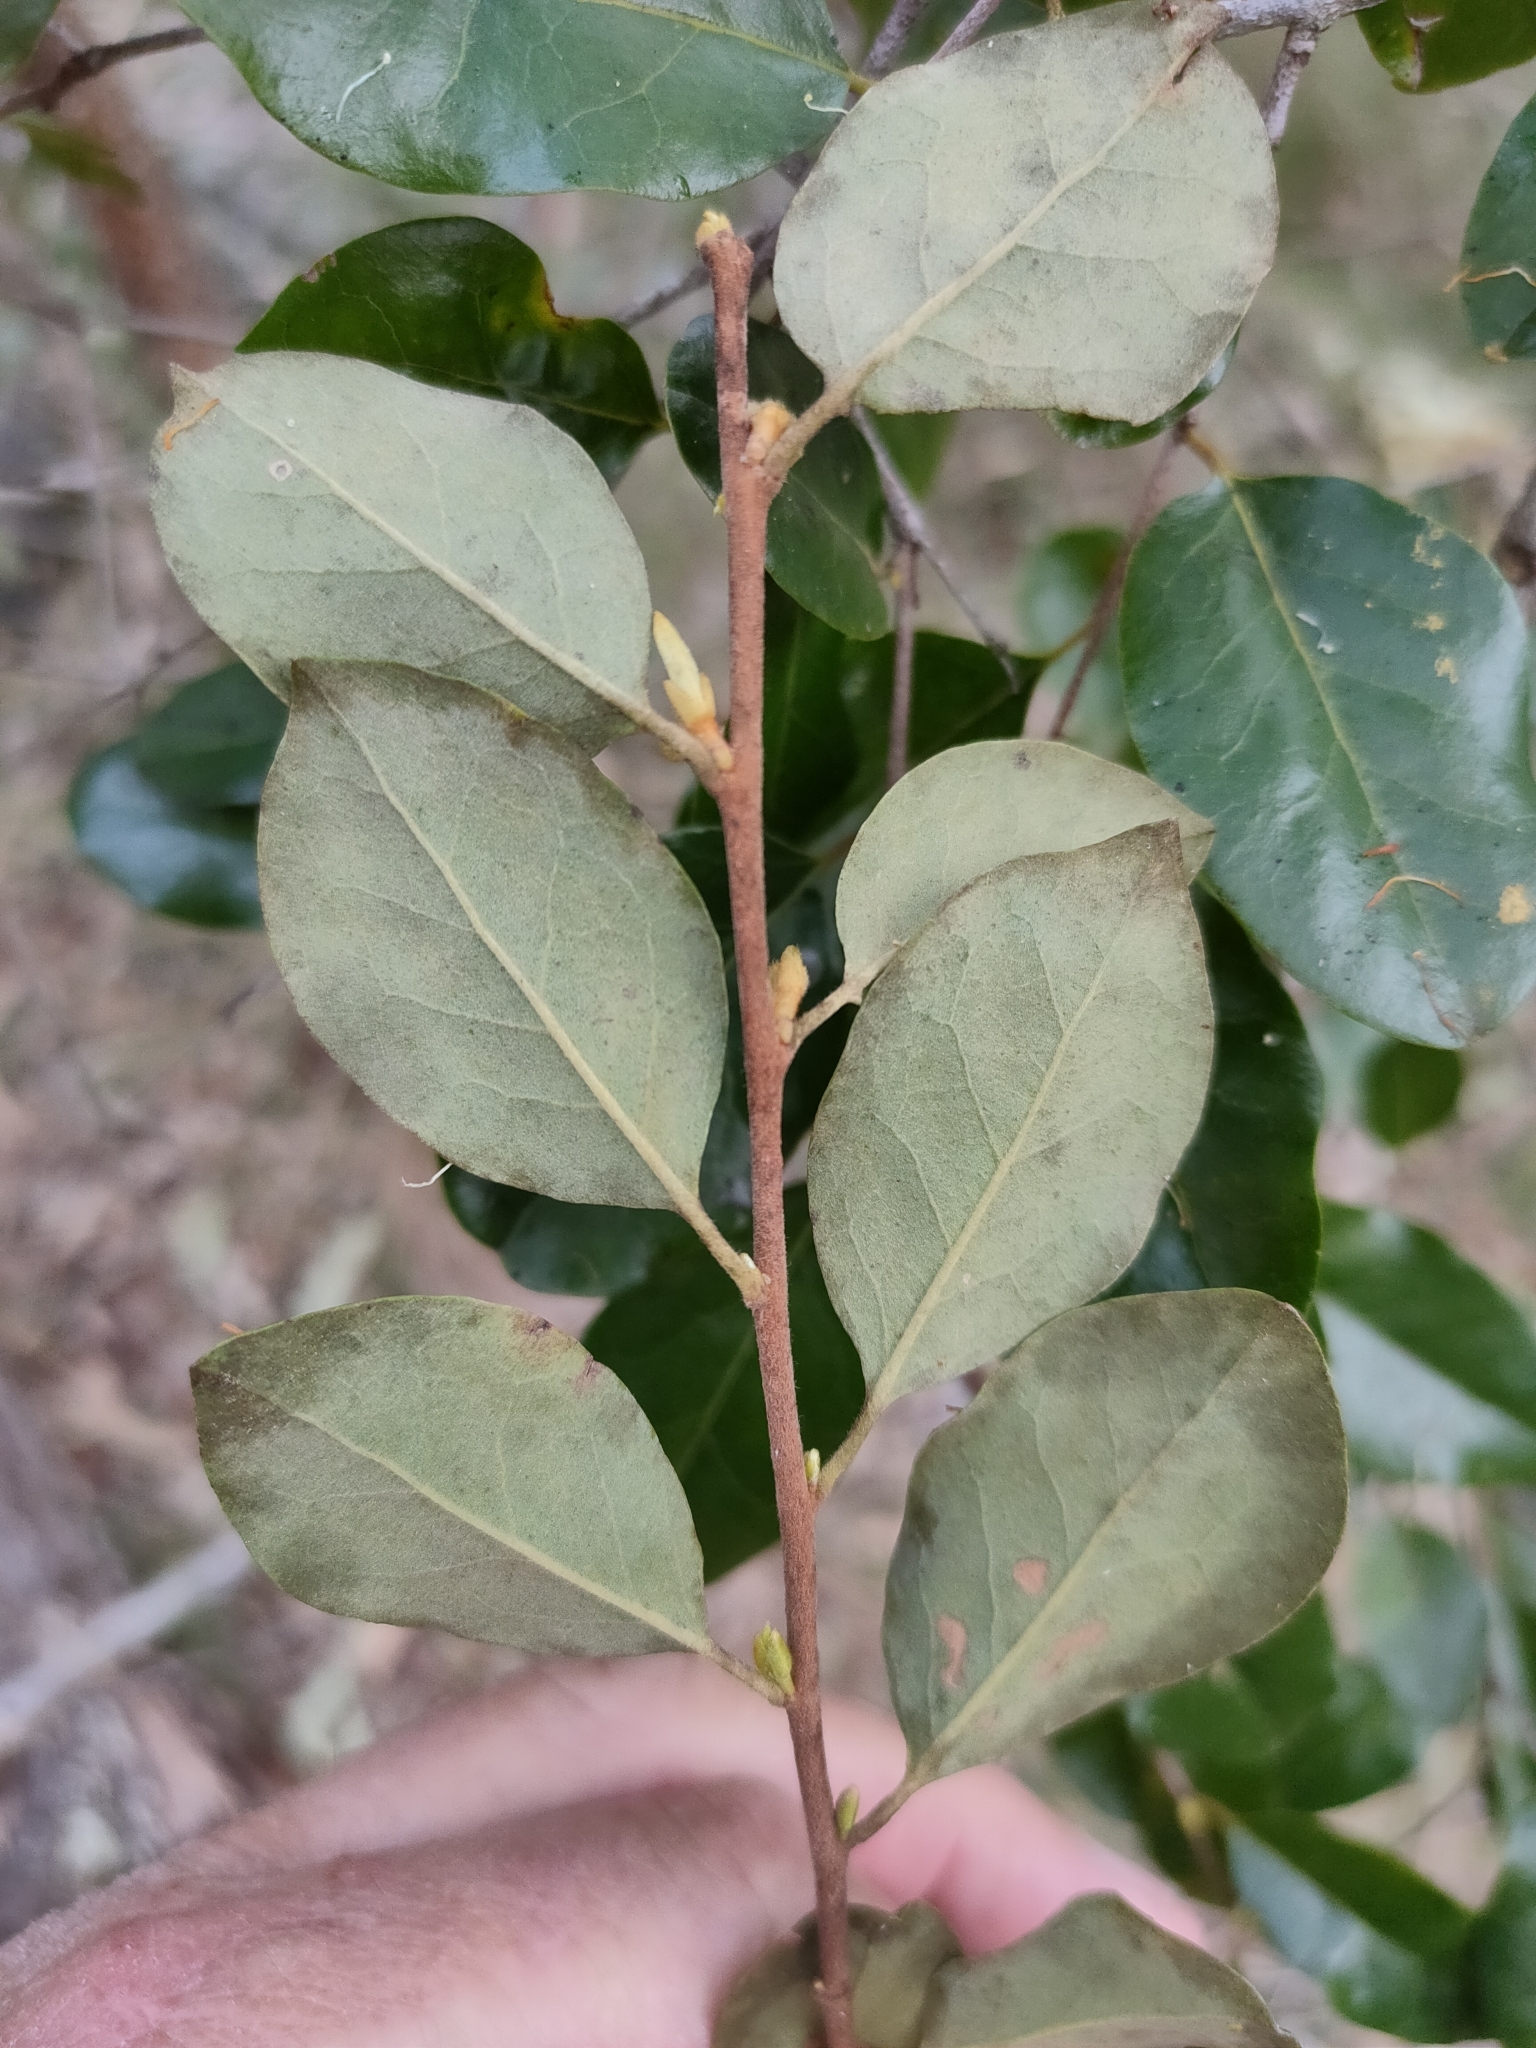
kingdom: Plantae
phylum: Tracheophyta
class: Magnoliopsida
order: Malpighiales
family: Picrodendraceae
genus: Petalostigma
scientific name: Petalostigma pubescens
